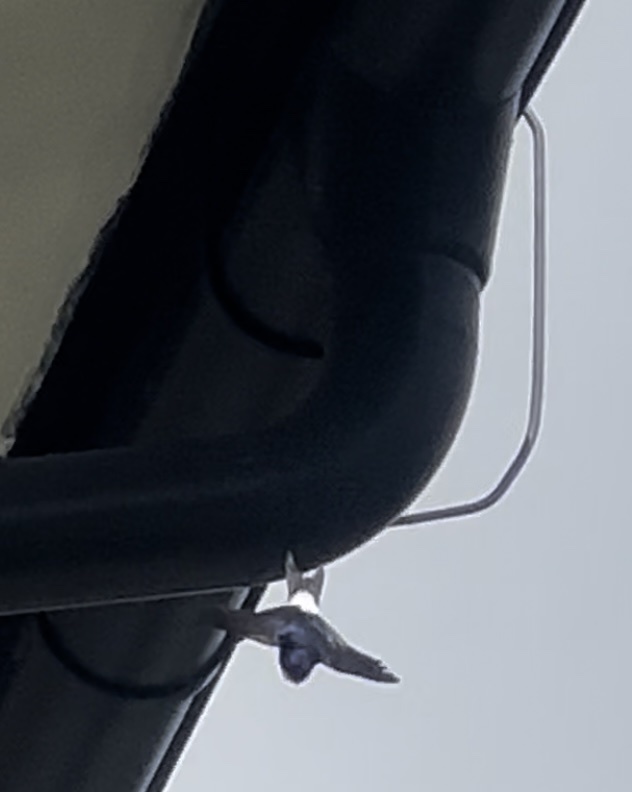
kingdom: Animalia
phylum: Chordata
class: Aves
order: Passeriformes
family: Hirundinidae
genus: Delichon
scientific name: Delichon urbicum
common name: Common house martin
